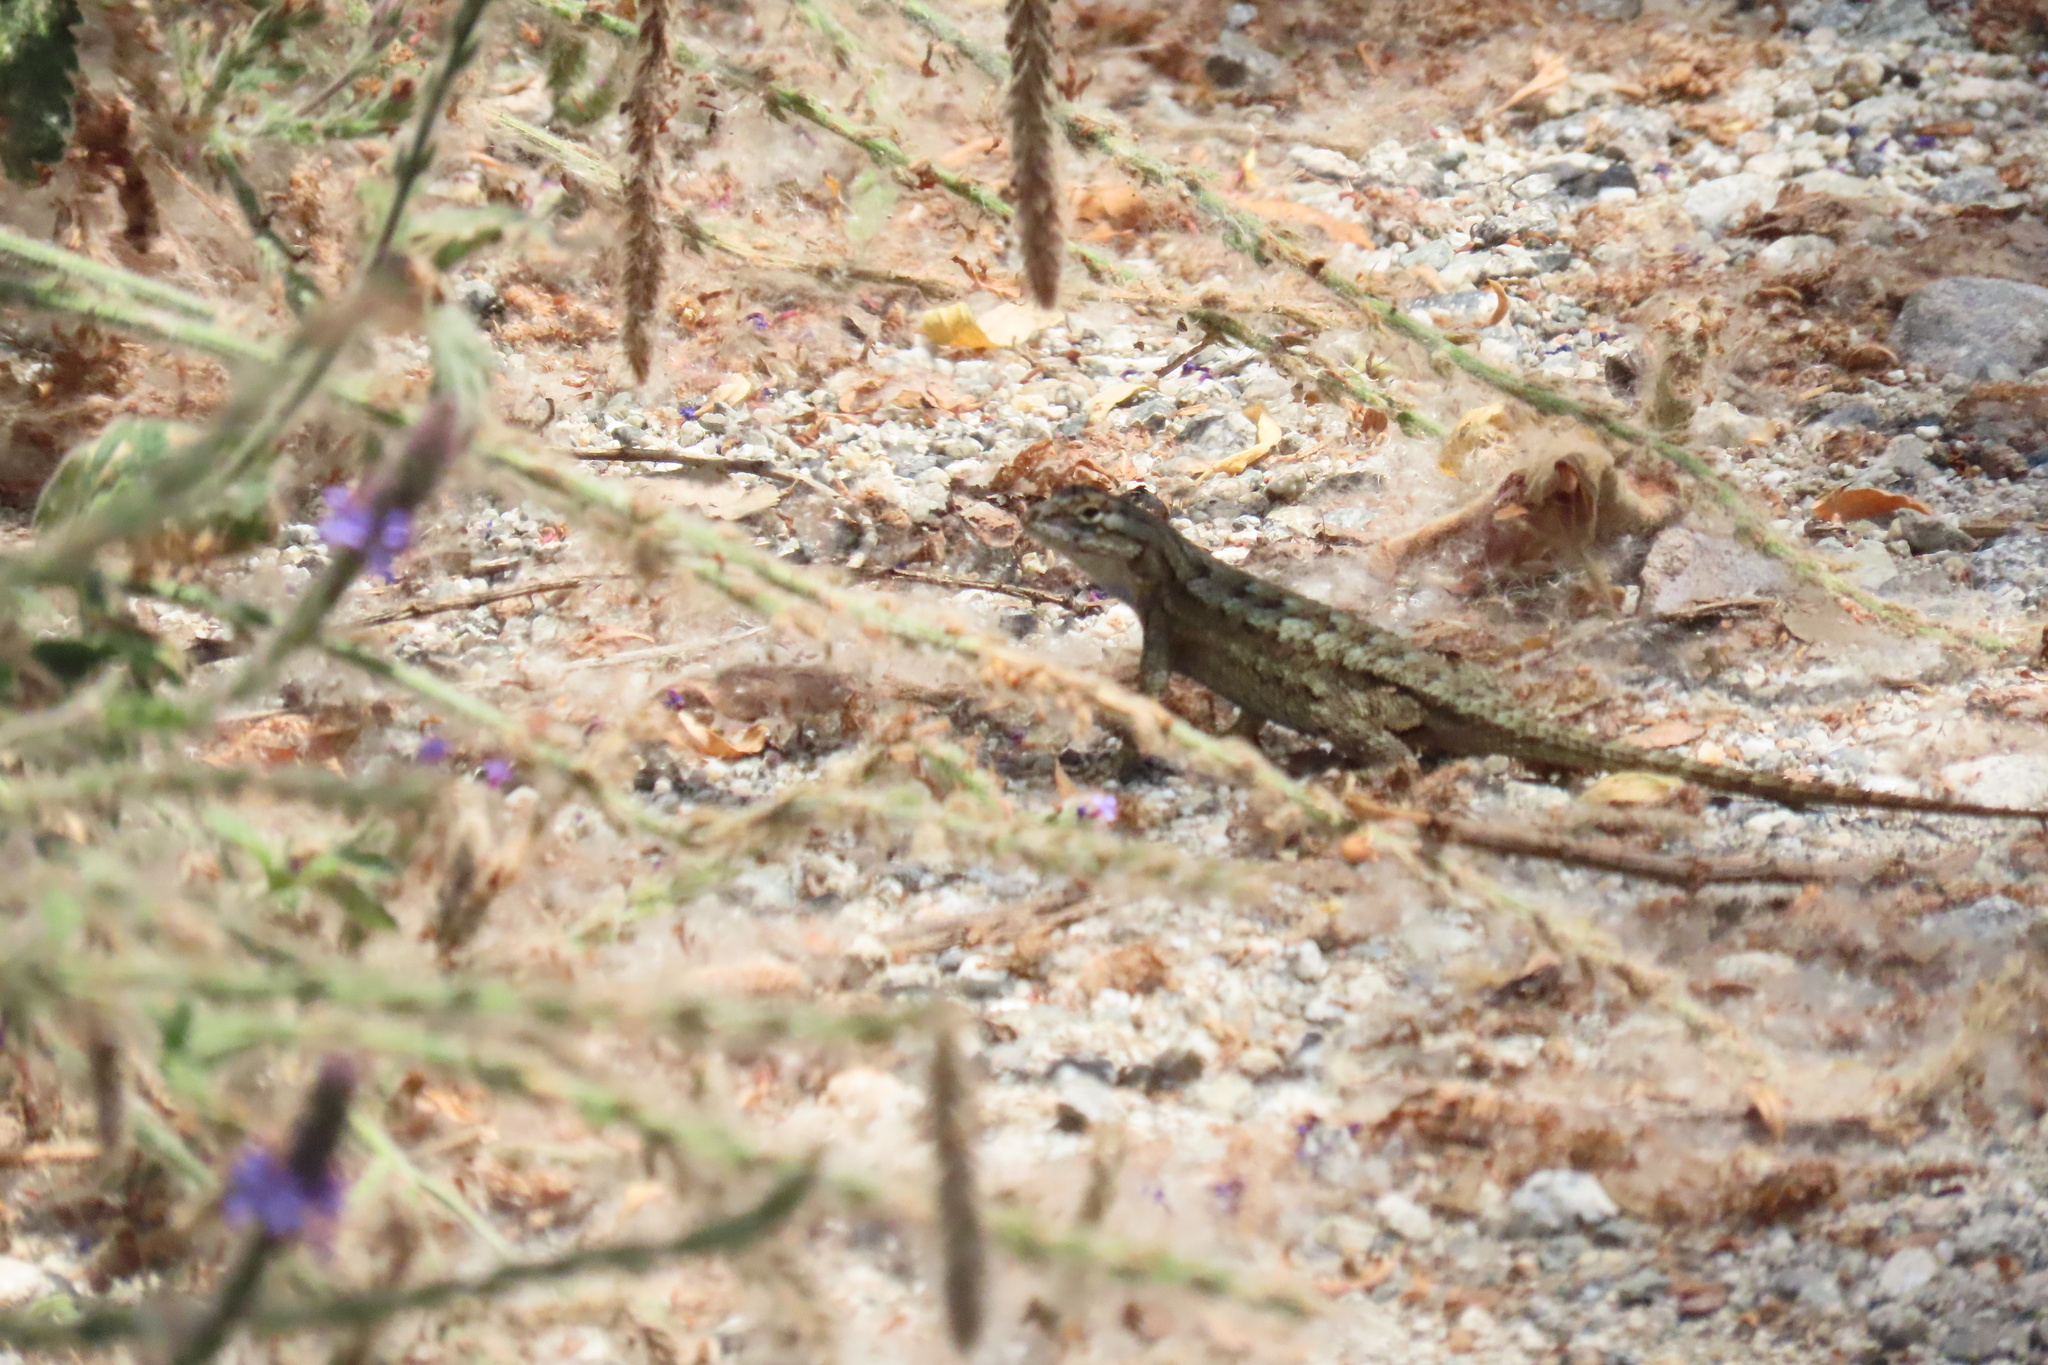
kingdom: Animalia
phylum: Chordata
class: Squamata
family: Phrynosomatidae
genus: Sceloporus
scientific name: Sceloporus occidentalis
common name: Western fence lizard
